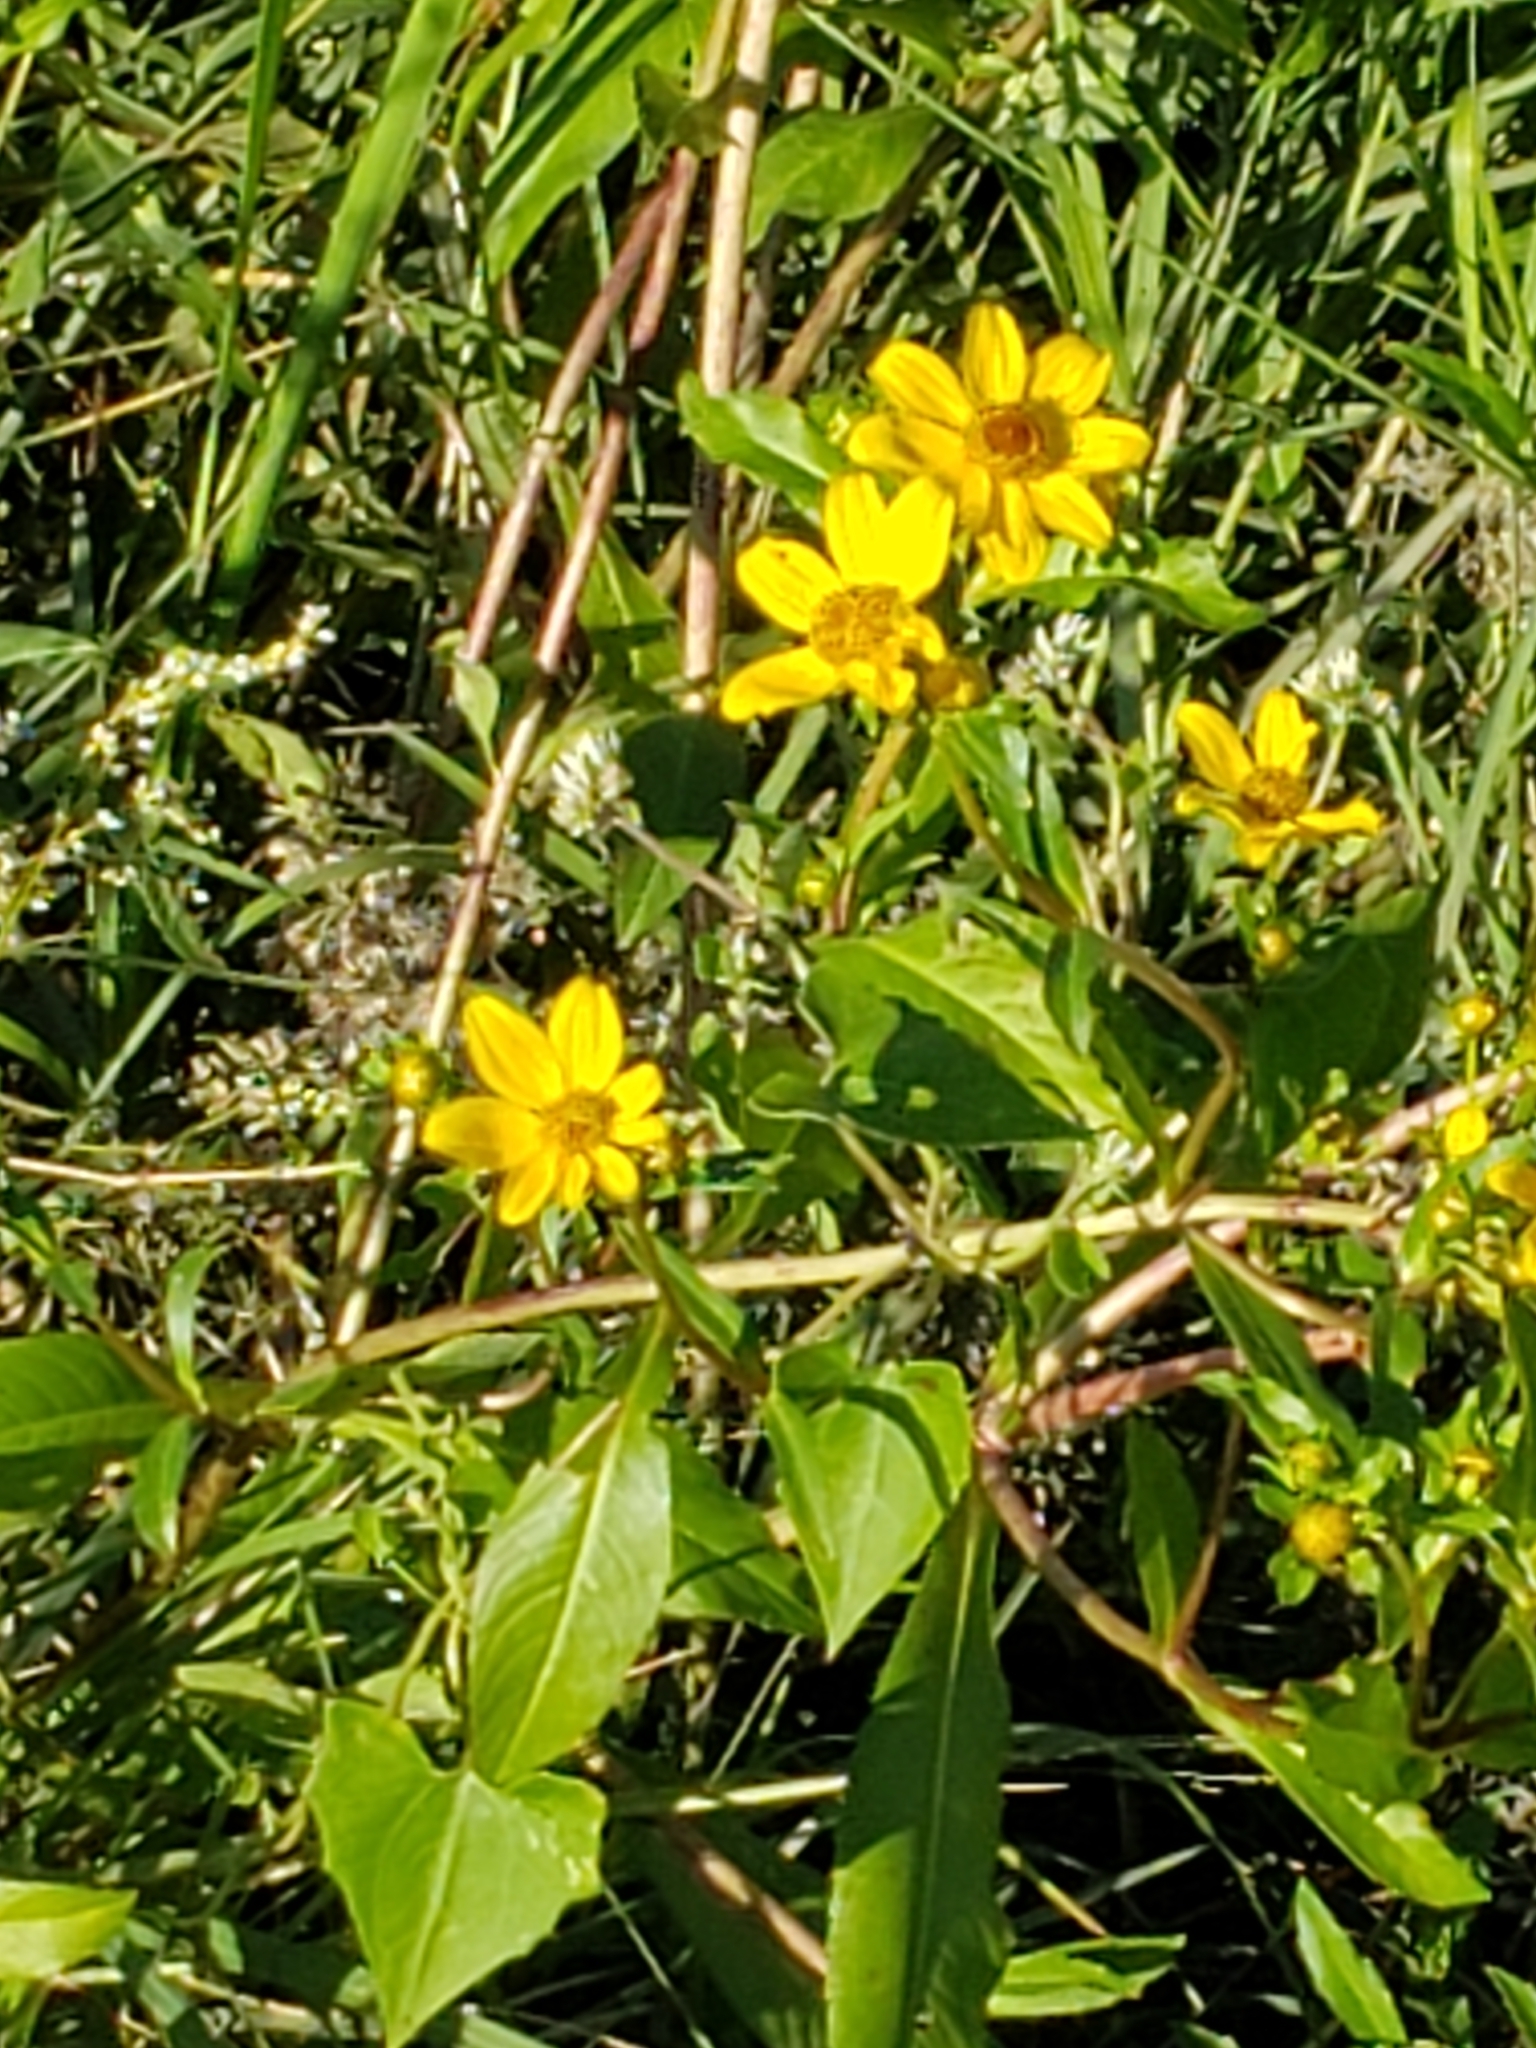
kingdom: Plantae
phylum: Tracheophyta
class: Magnoliopsida
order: Asterales
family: Asteraceae
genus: Bidens
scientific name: Bidens laevis
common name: Larger bur-marigold
